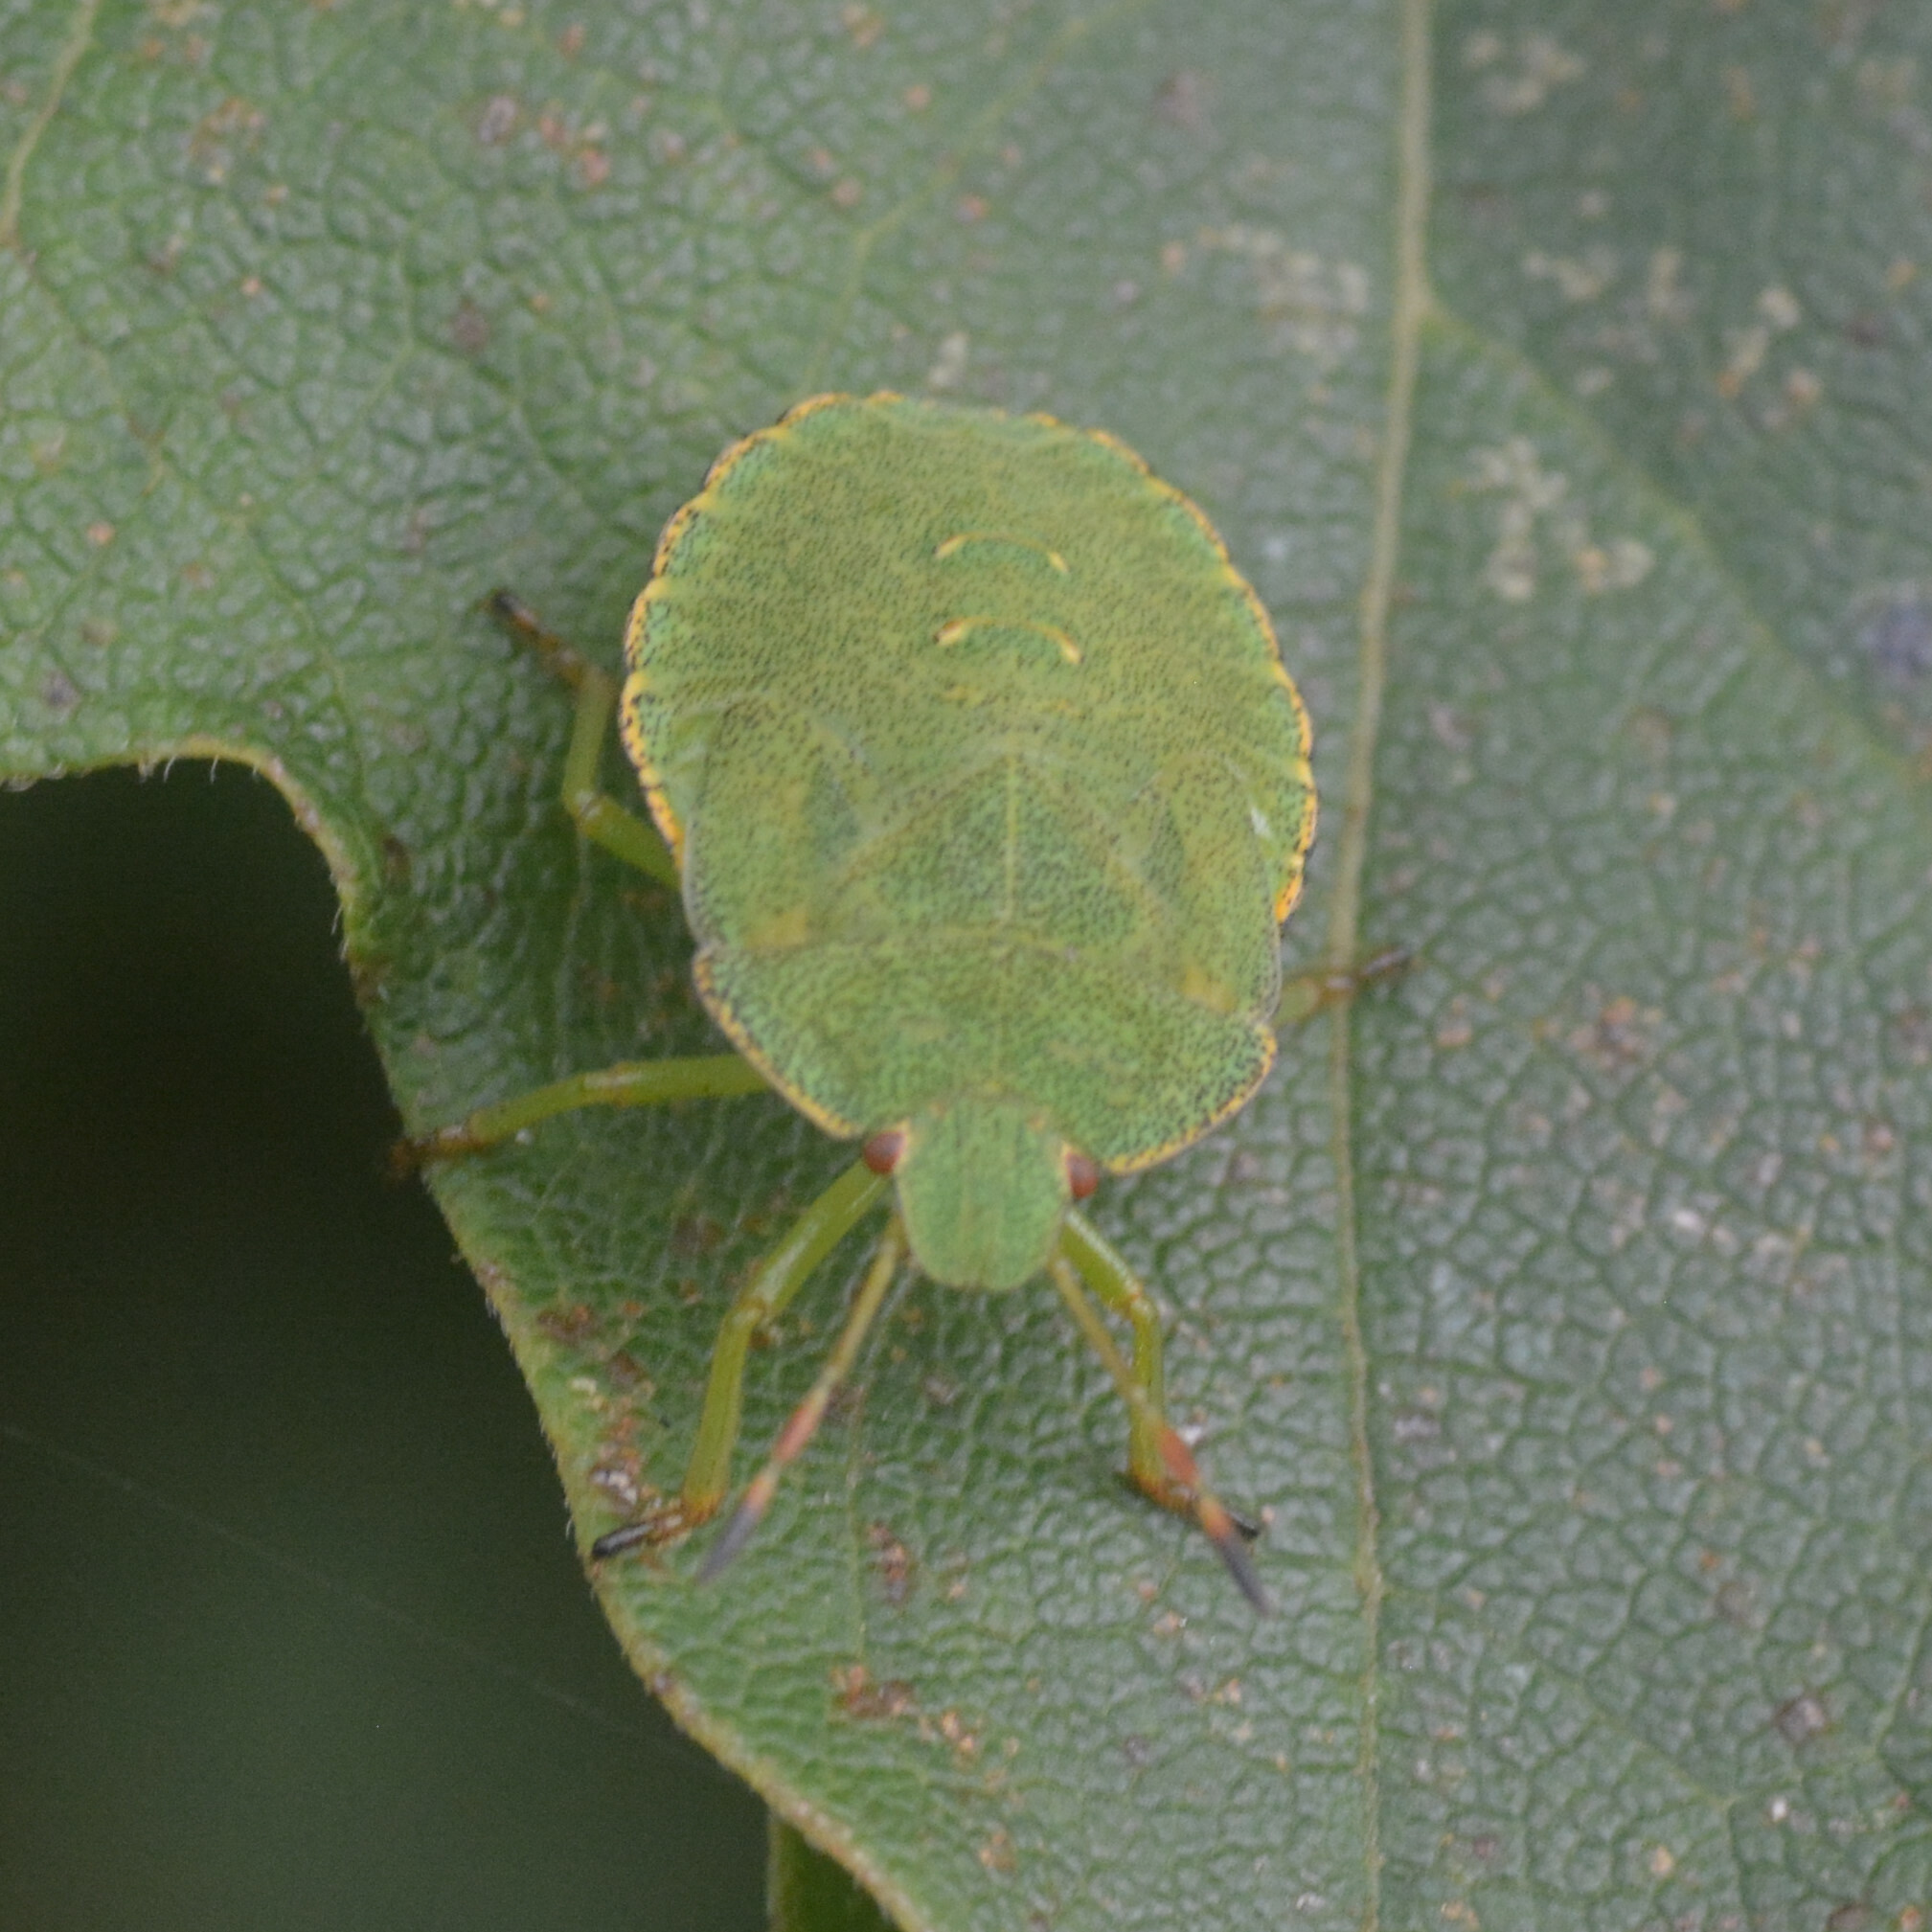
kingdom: Animalia
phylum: Arthropoda
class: Insecta
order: Hemiptera
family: Pentatomidae
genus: Palomena
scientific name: Palomena prasina
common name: Green shieldbug
